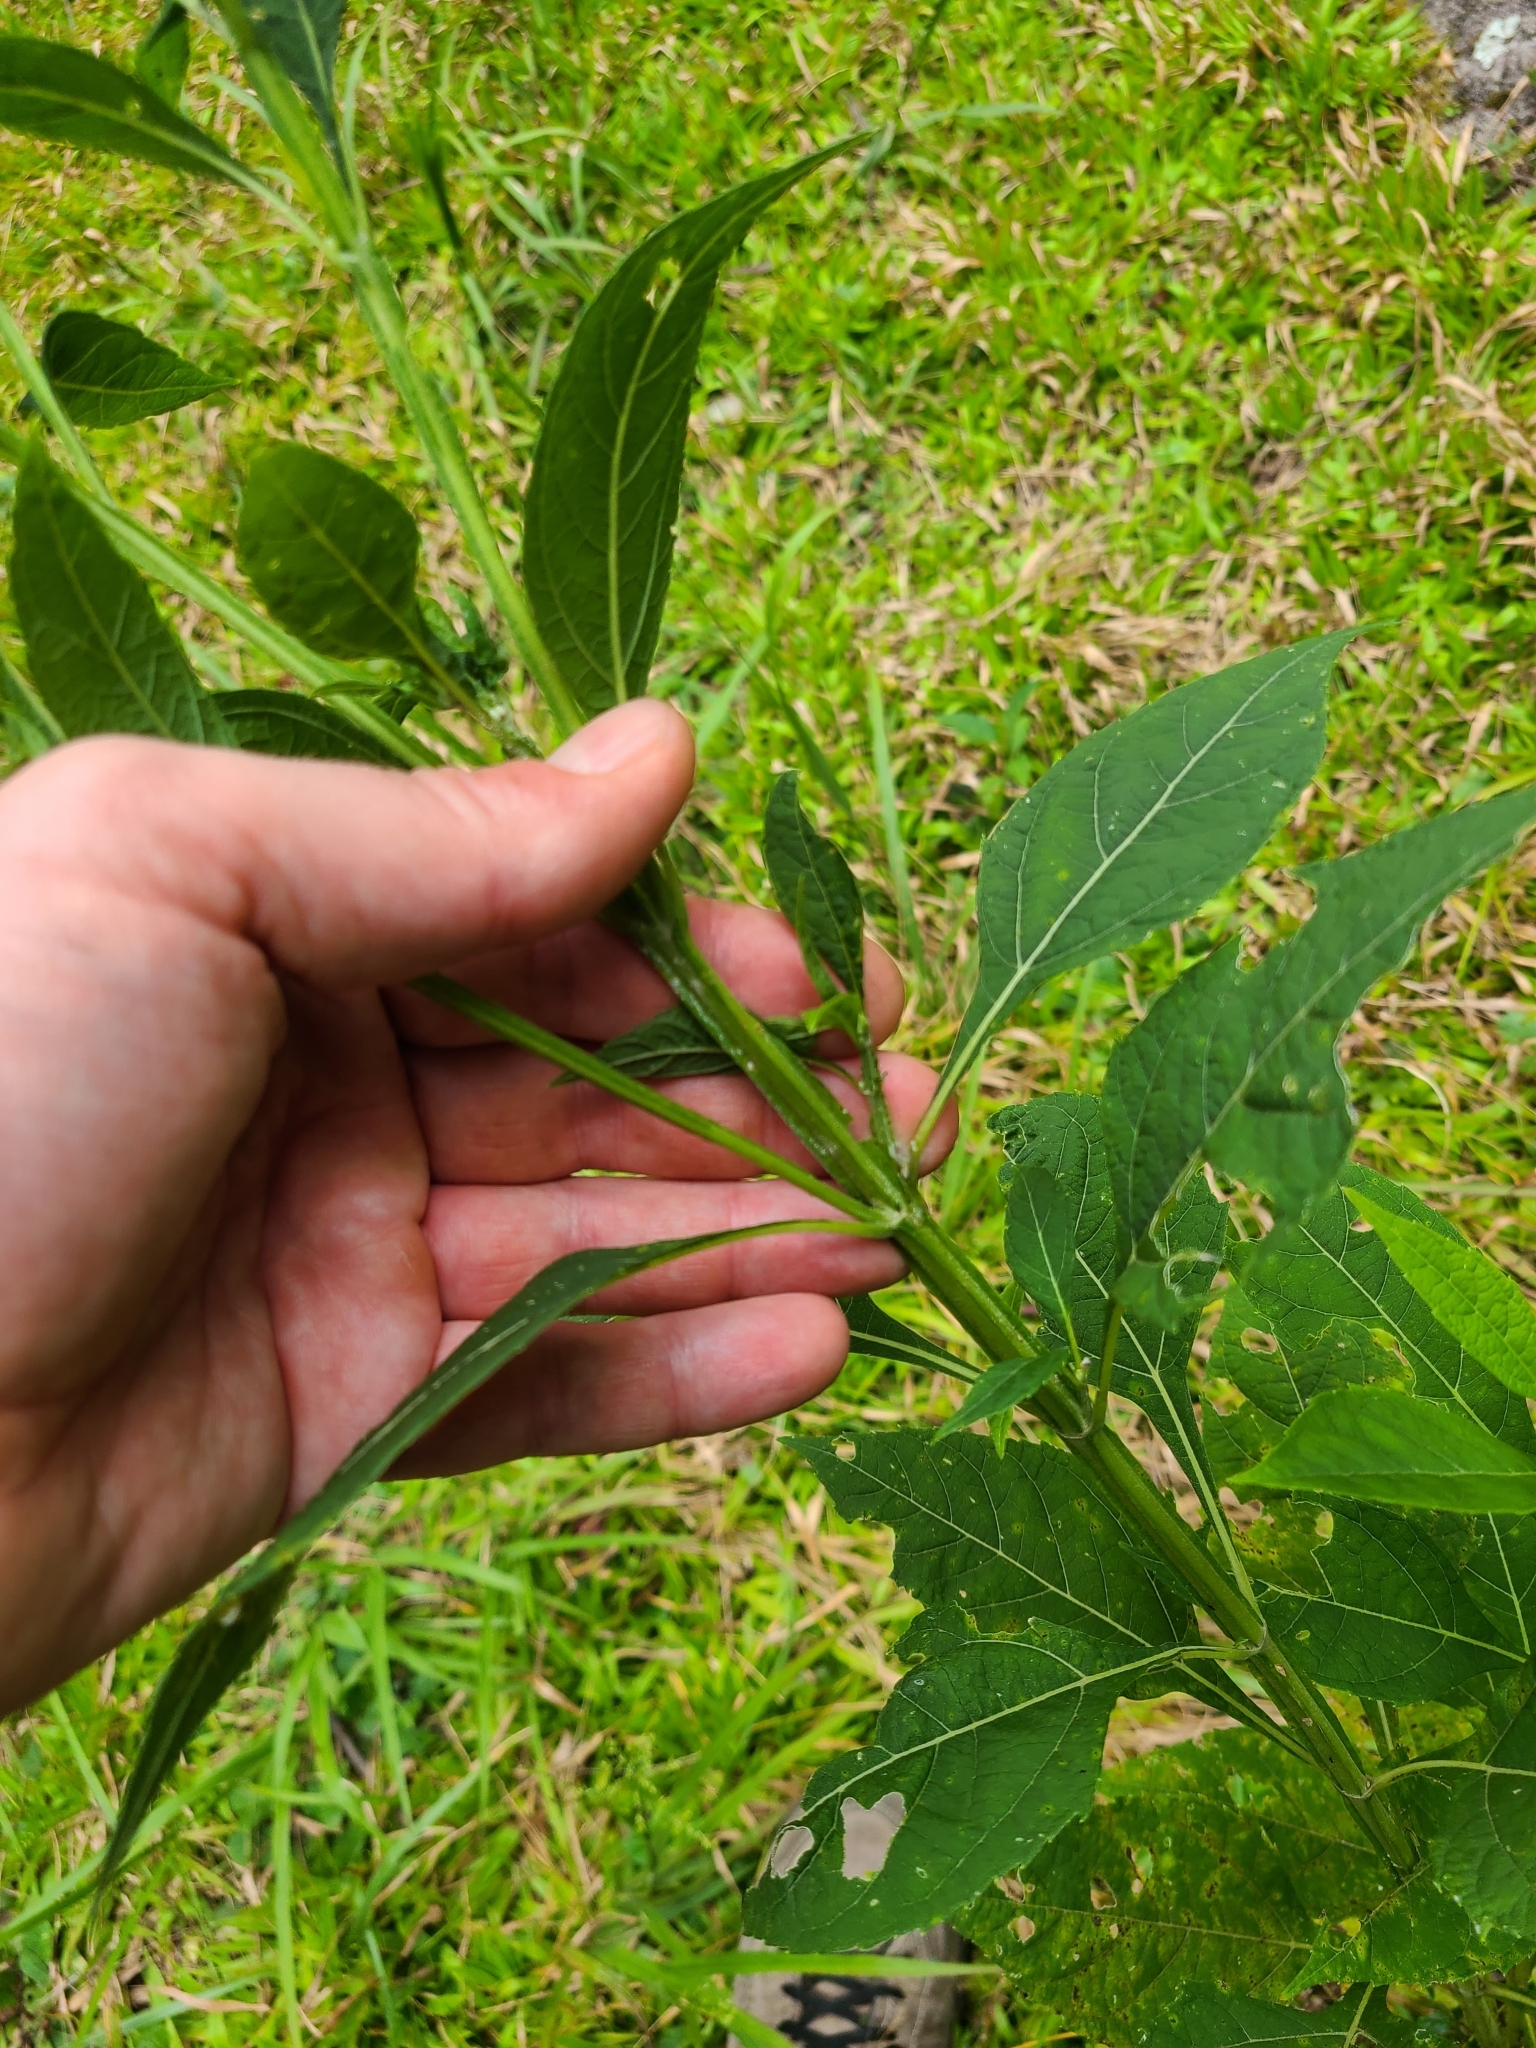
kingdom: Plantae
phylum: Tracheophyta
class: Magnoliopsida
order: Asterales
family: Asteraceae
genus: Verbesina
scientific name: Verbesina occidentalis
